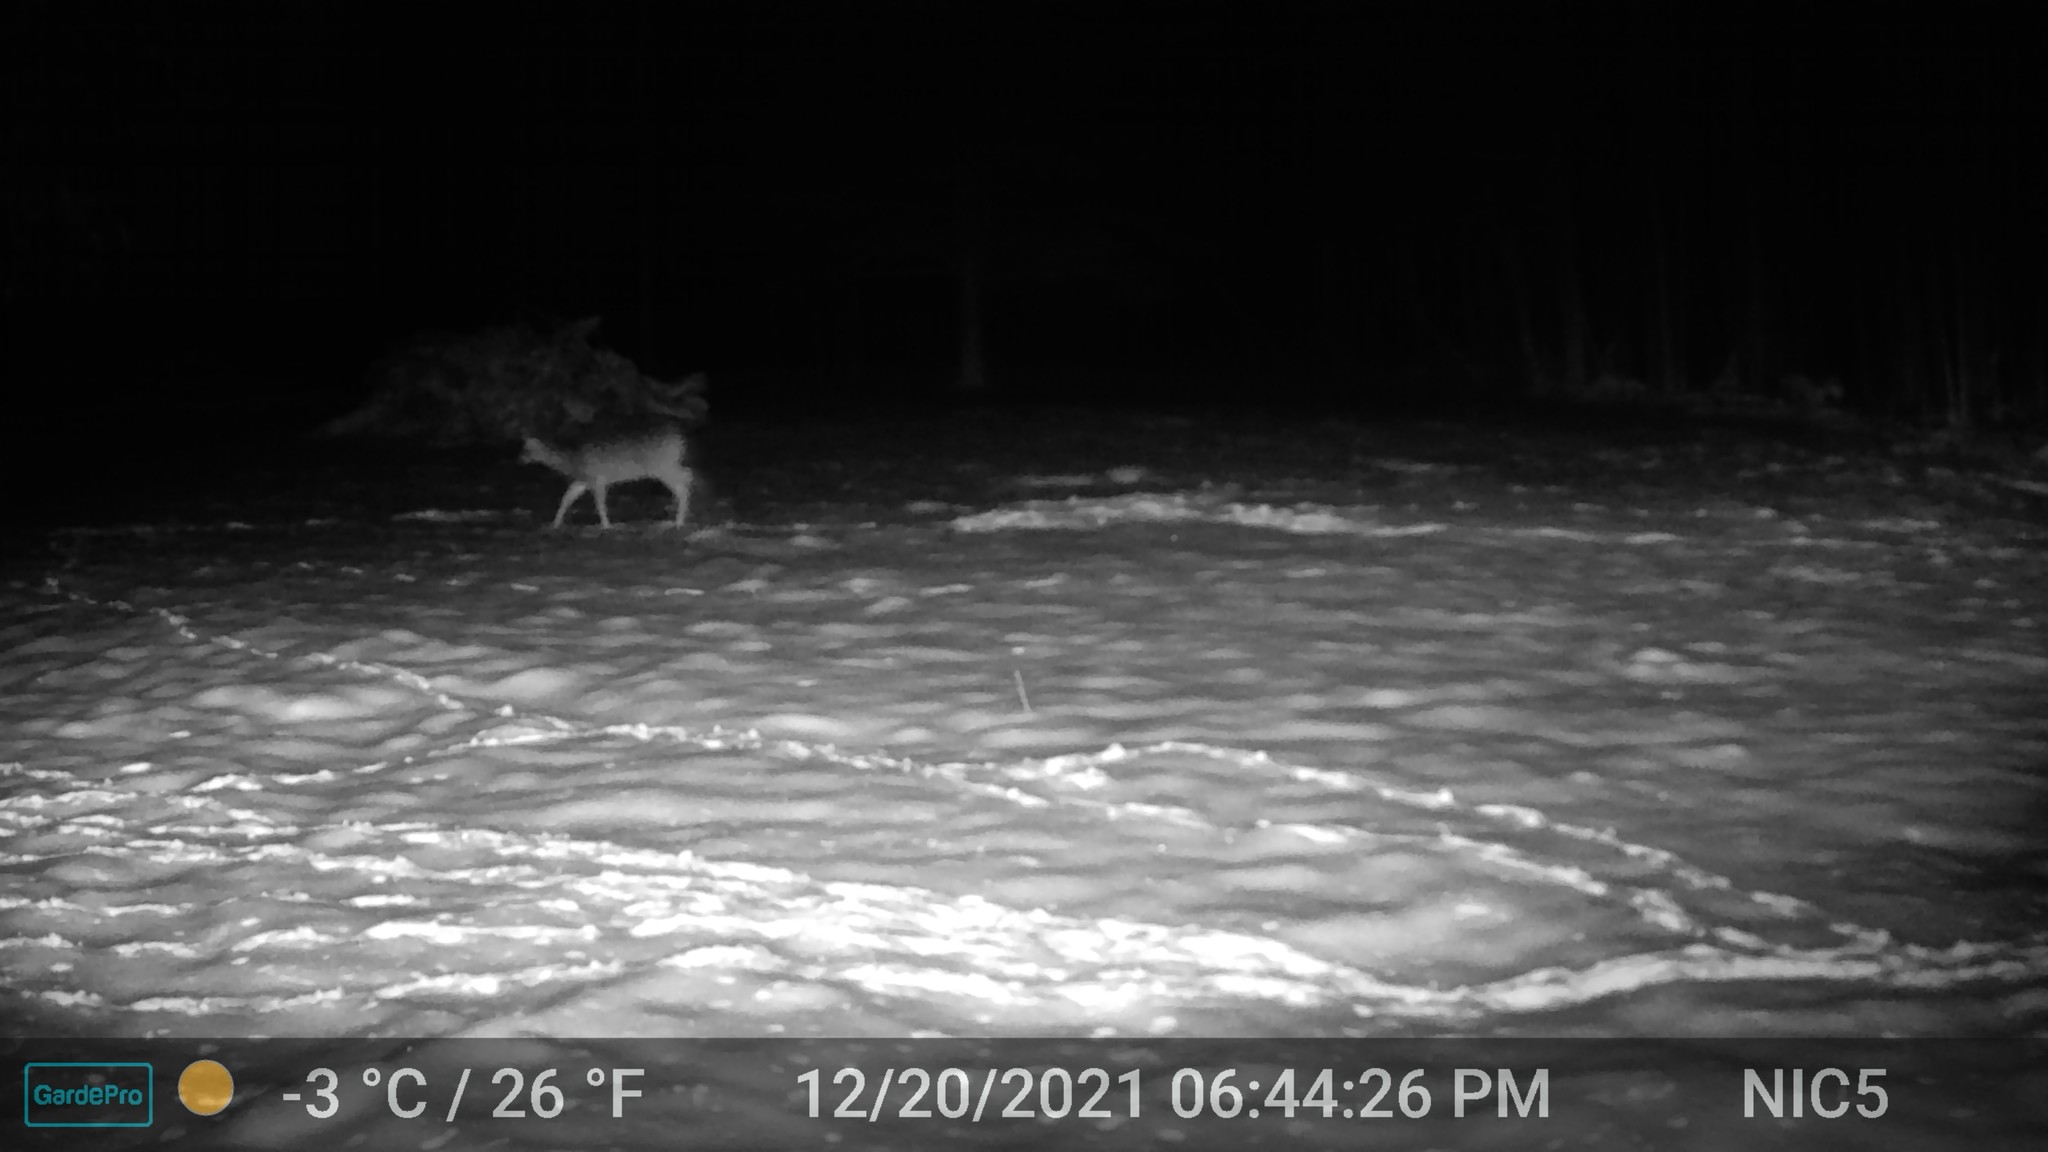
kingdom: Animalia
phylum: Chordata
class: Mammalia
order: Artiodactyla
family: Cervidae
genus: Odocoileus
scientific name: Odocoileus virginianus
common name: White-tailed deer
